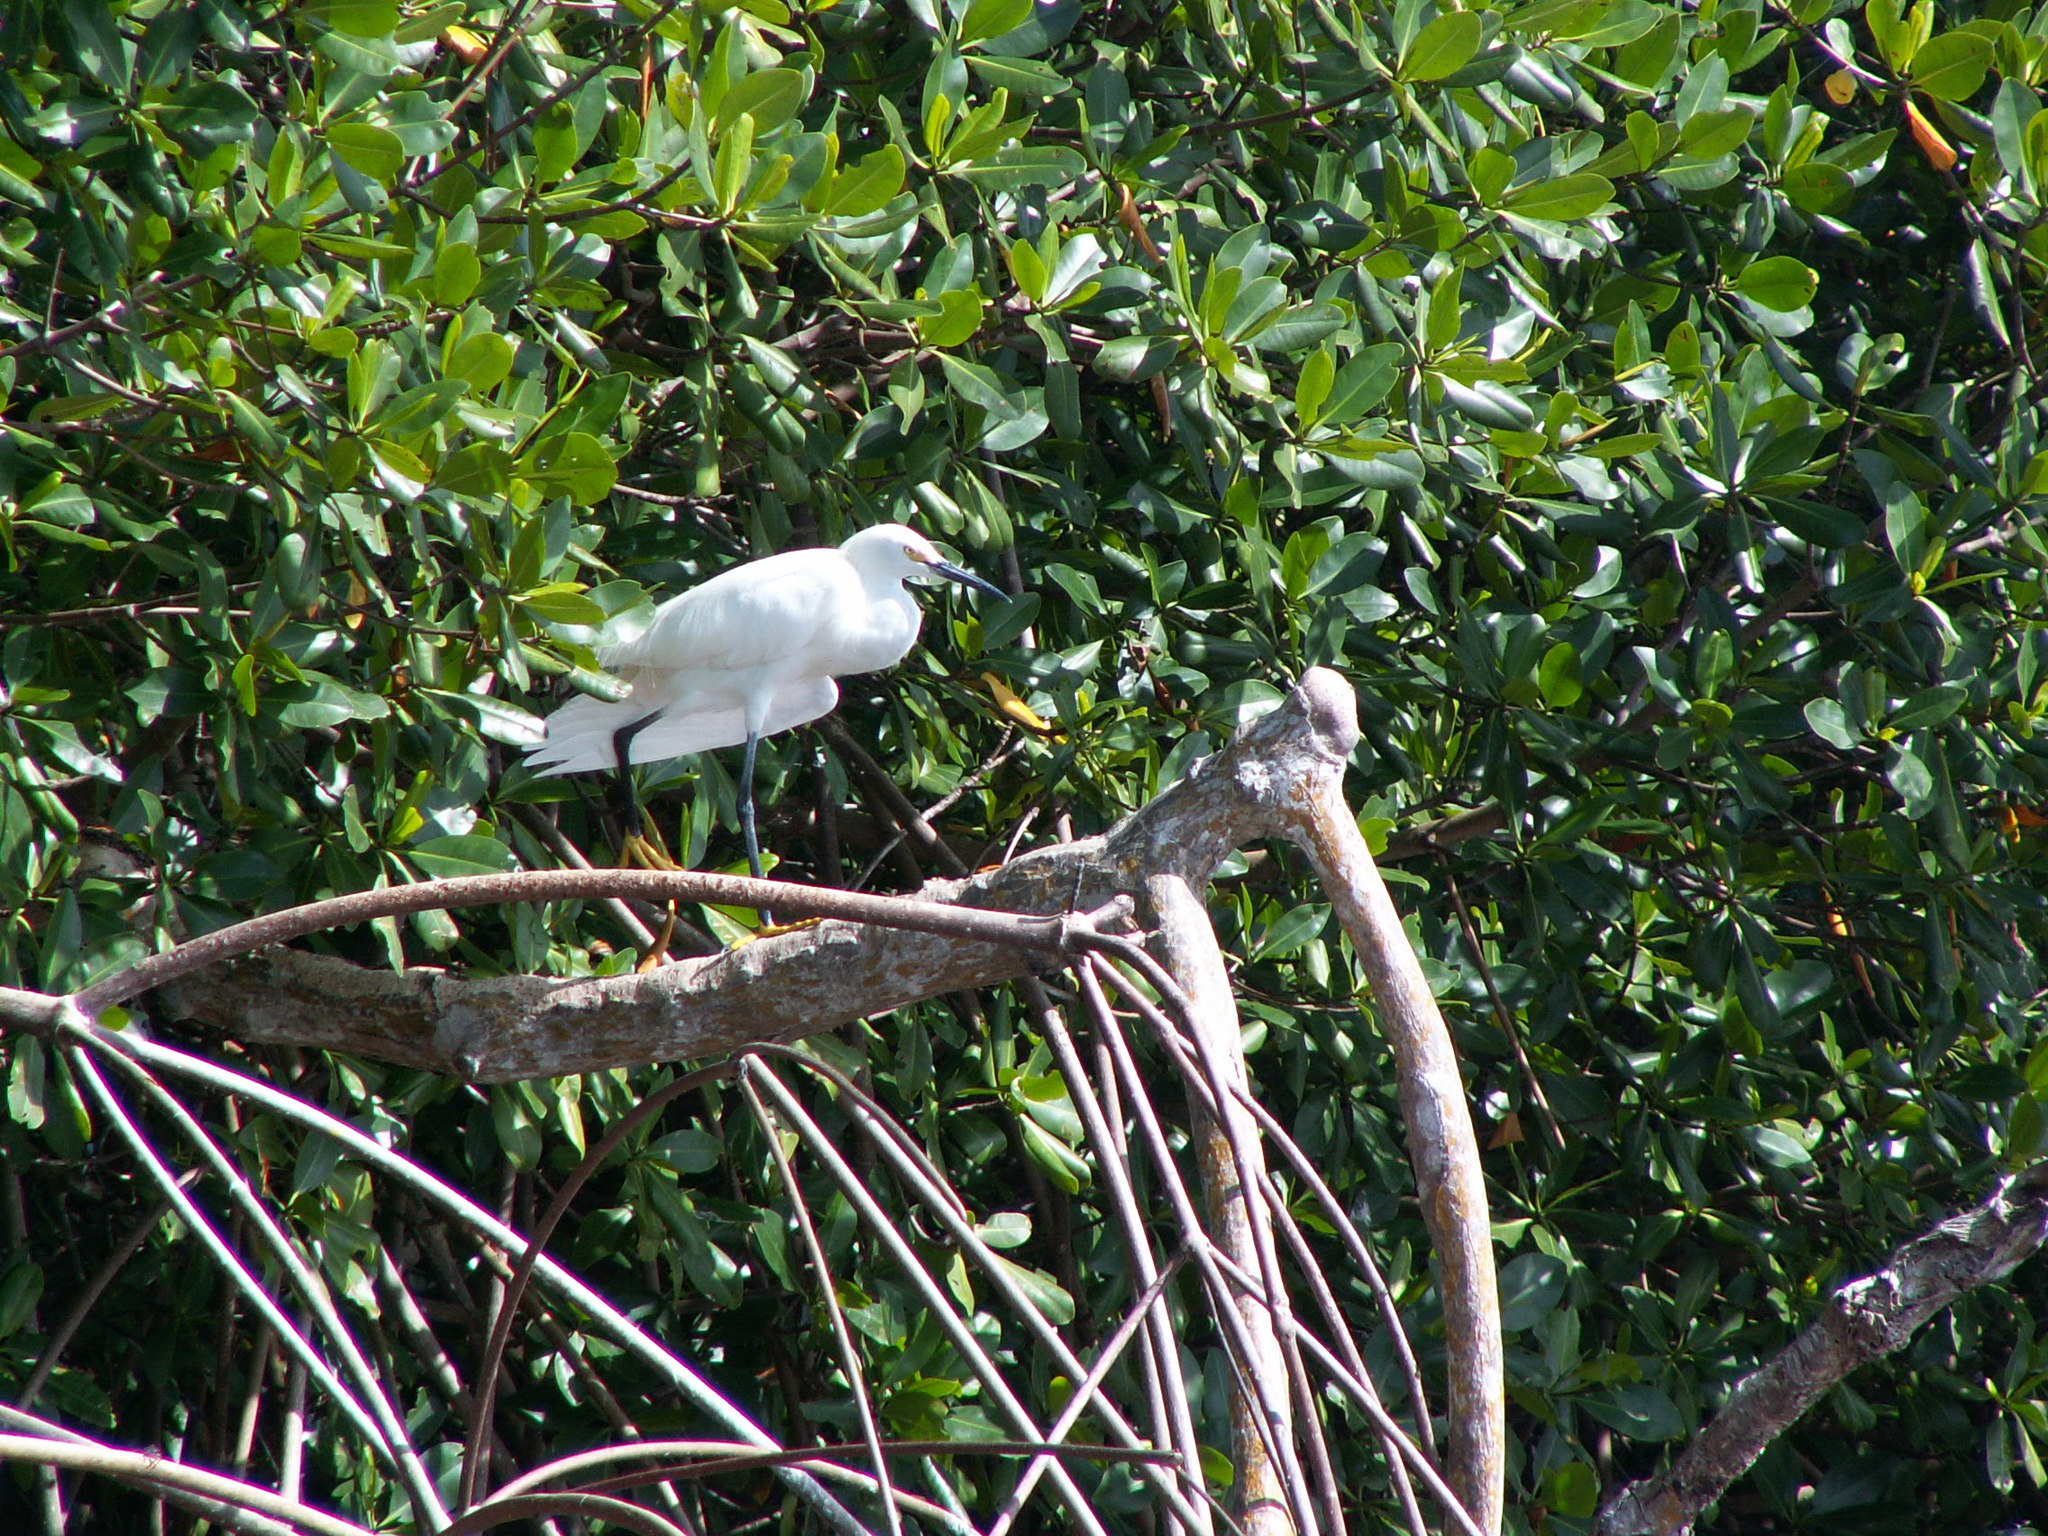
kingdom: Animalia
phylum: Chordata
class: Aves
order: Pelecaniformes
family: Ardeidae
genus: Egretta
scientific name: Egretta thula
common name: Snowy egret
